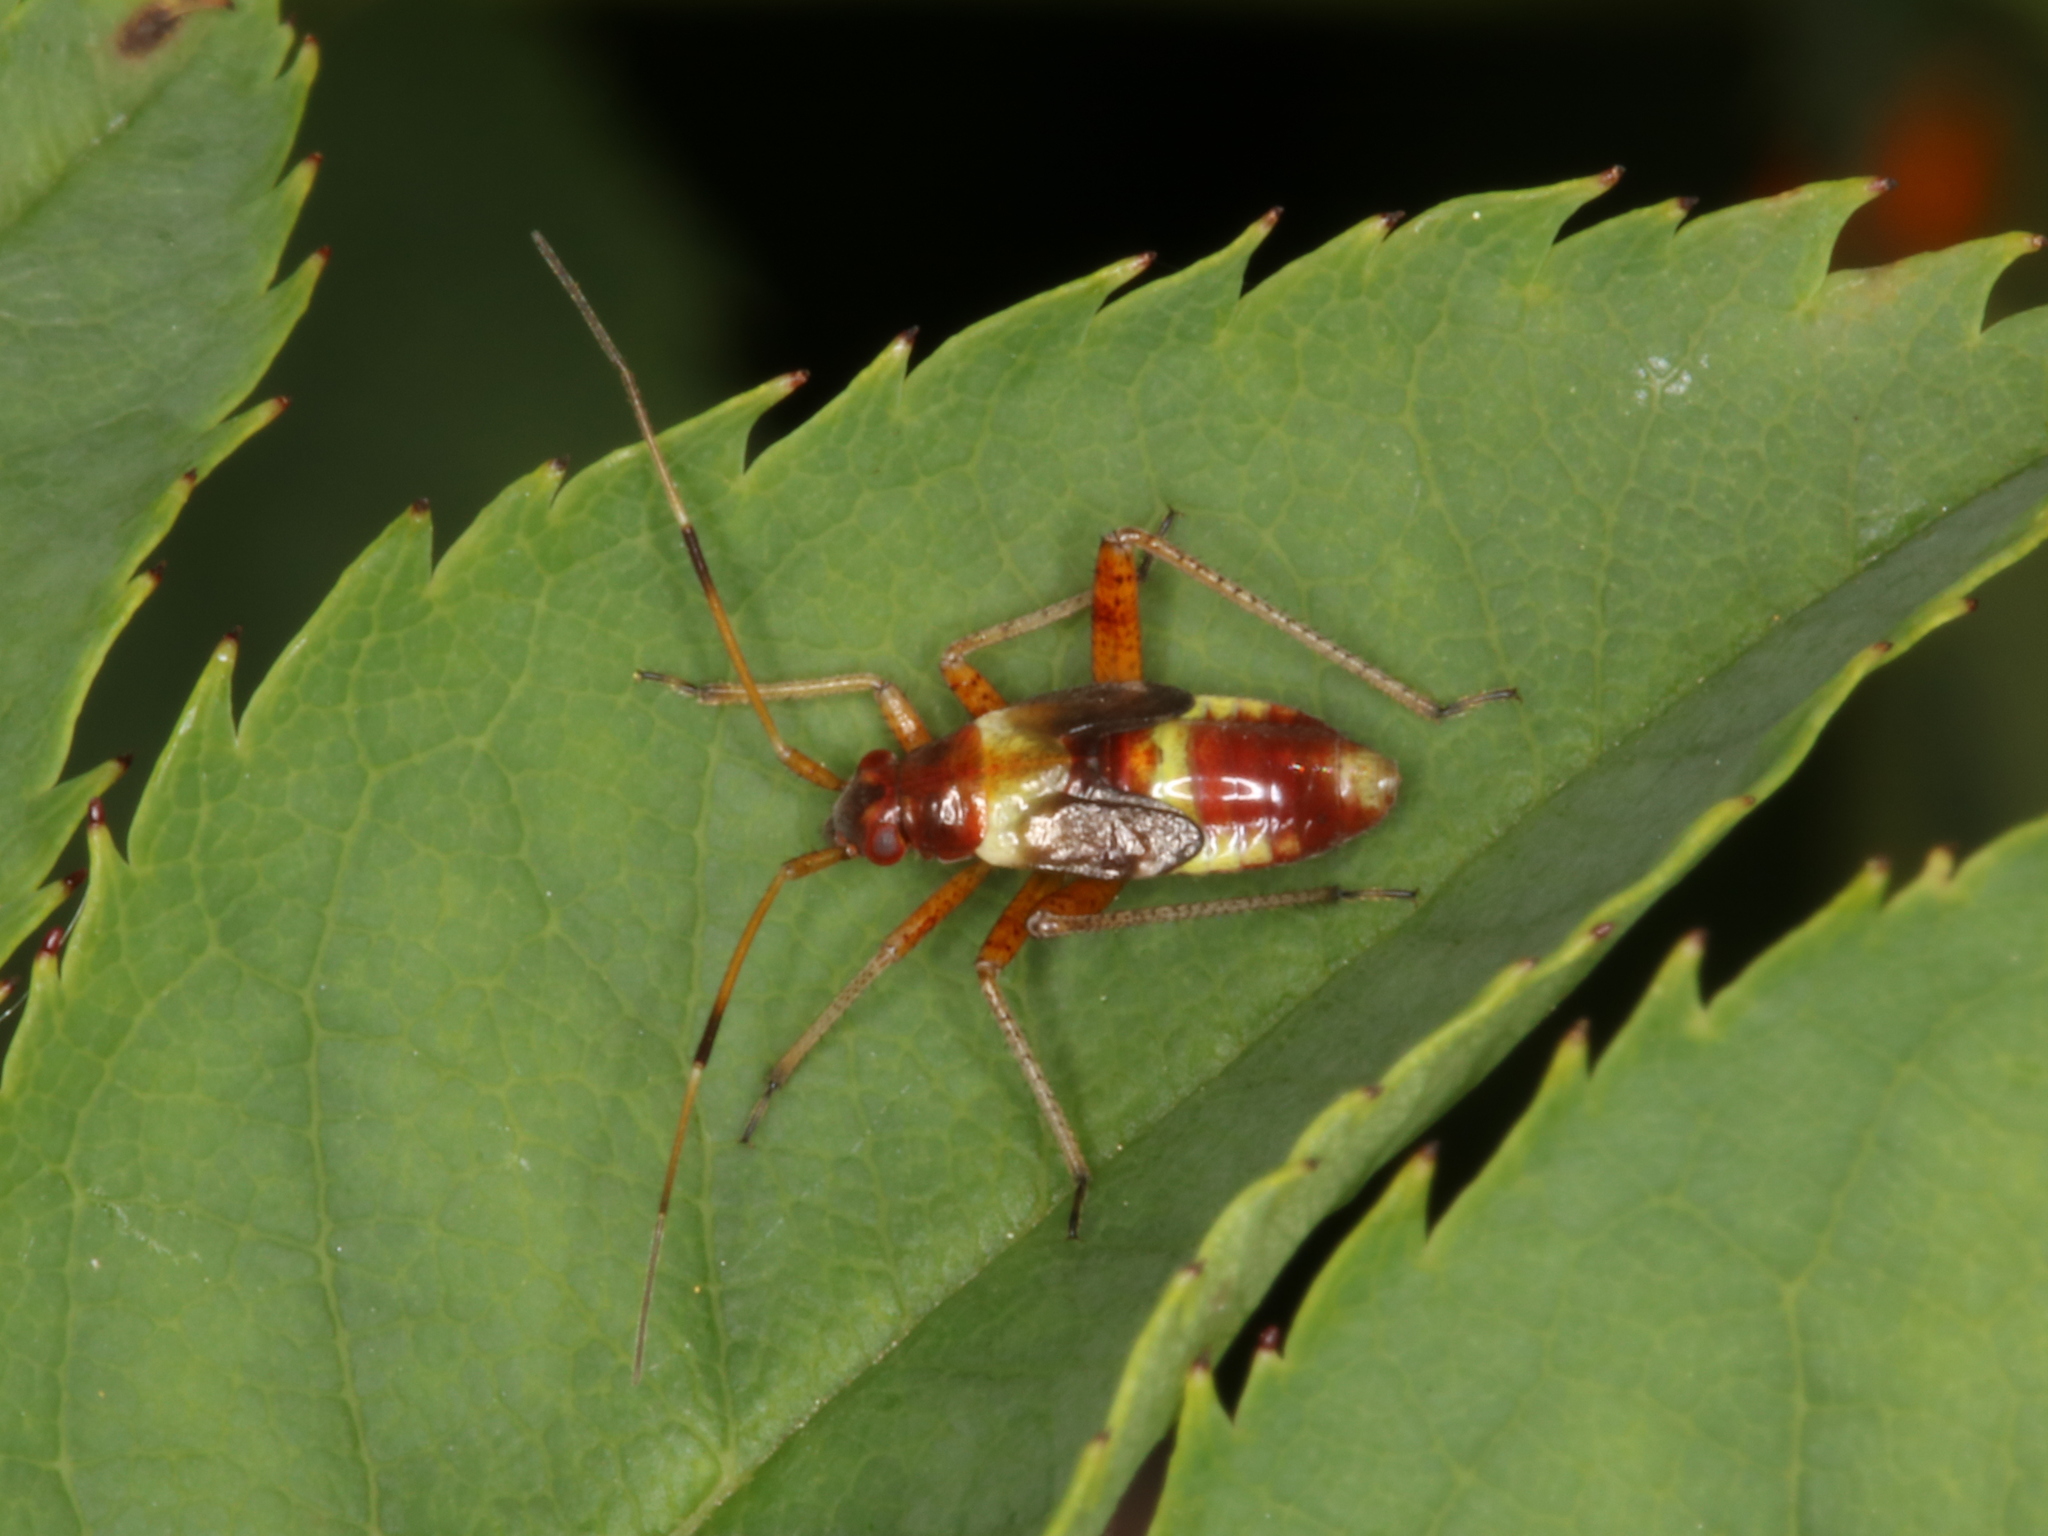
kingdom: Animalia
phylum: Arthropoda
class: Insecta
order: Hemiptera
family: Miridae
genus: Closterotomus
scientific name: Closterotomus fulvomaculatus
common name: Spotted plant bug
